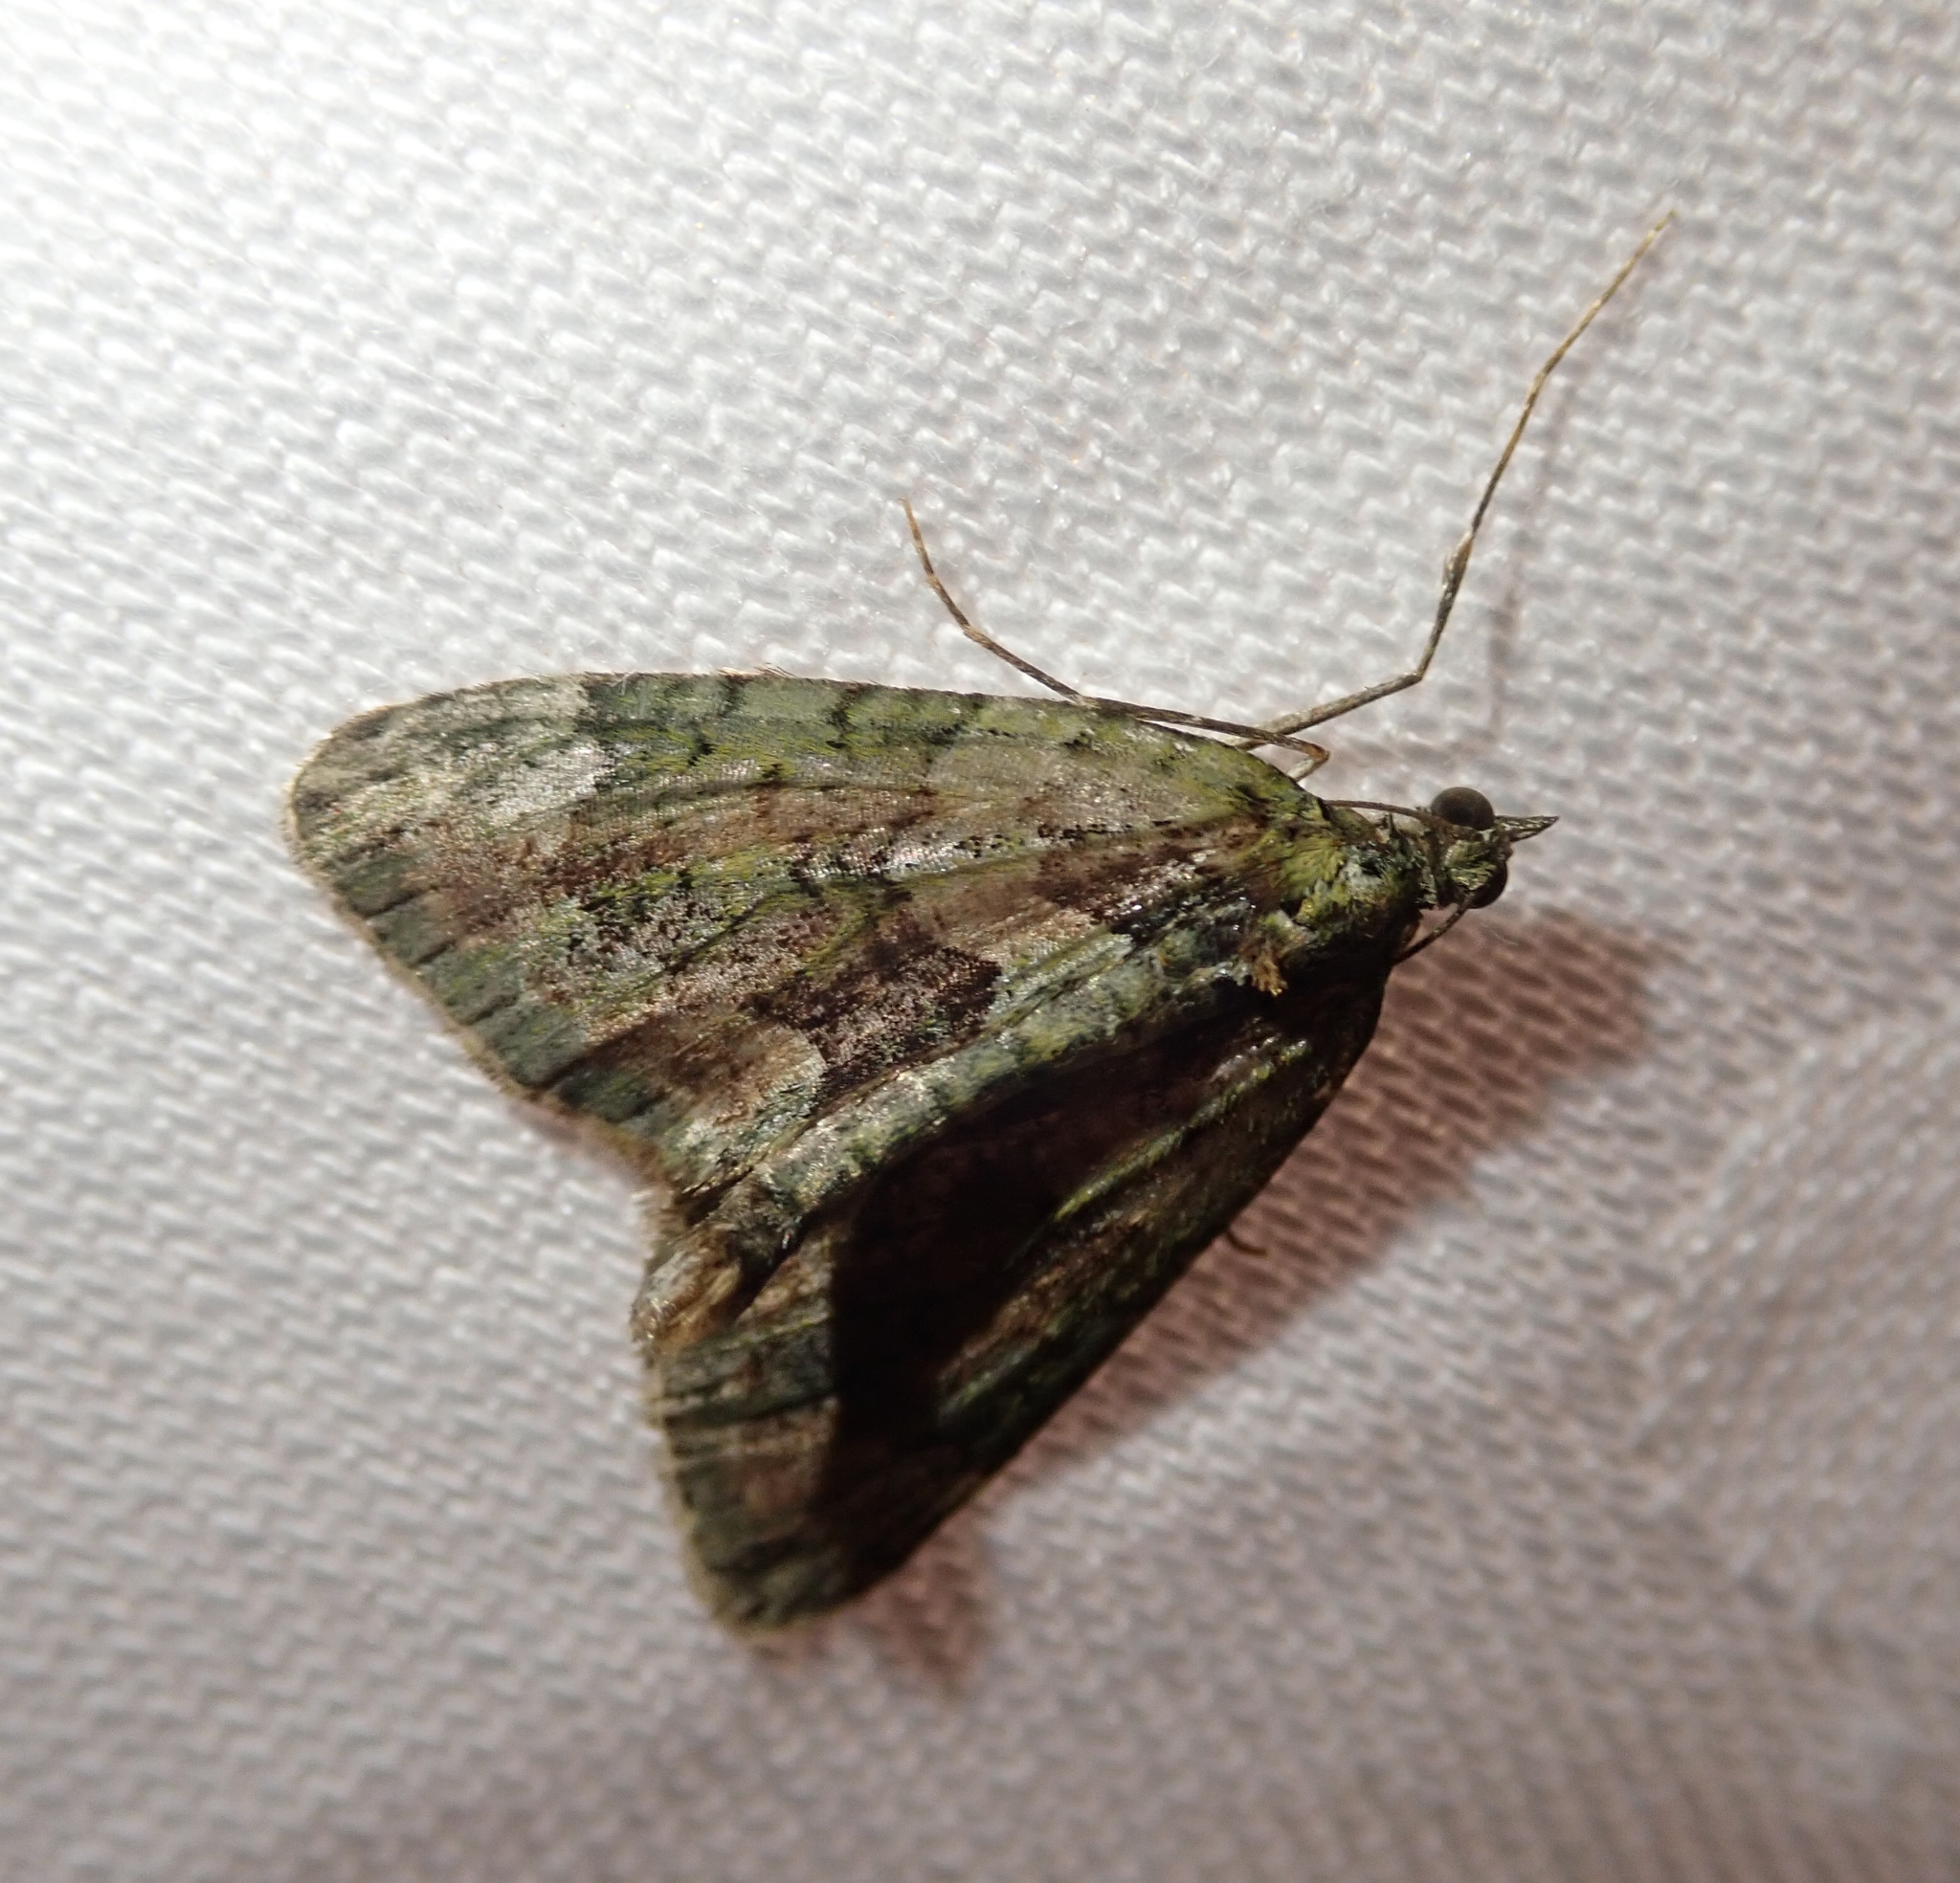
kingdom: Animalia
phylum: Arthropoda
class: Insecta
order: Lepidoptera
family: Geometridae
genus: Chloroclysta
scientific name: Chloroclysta siterata
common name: Red-green carpet
